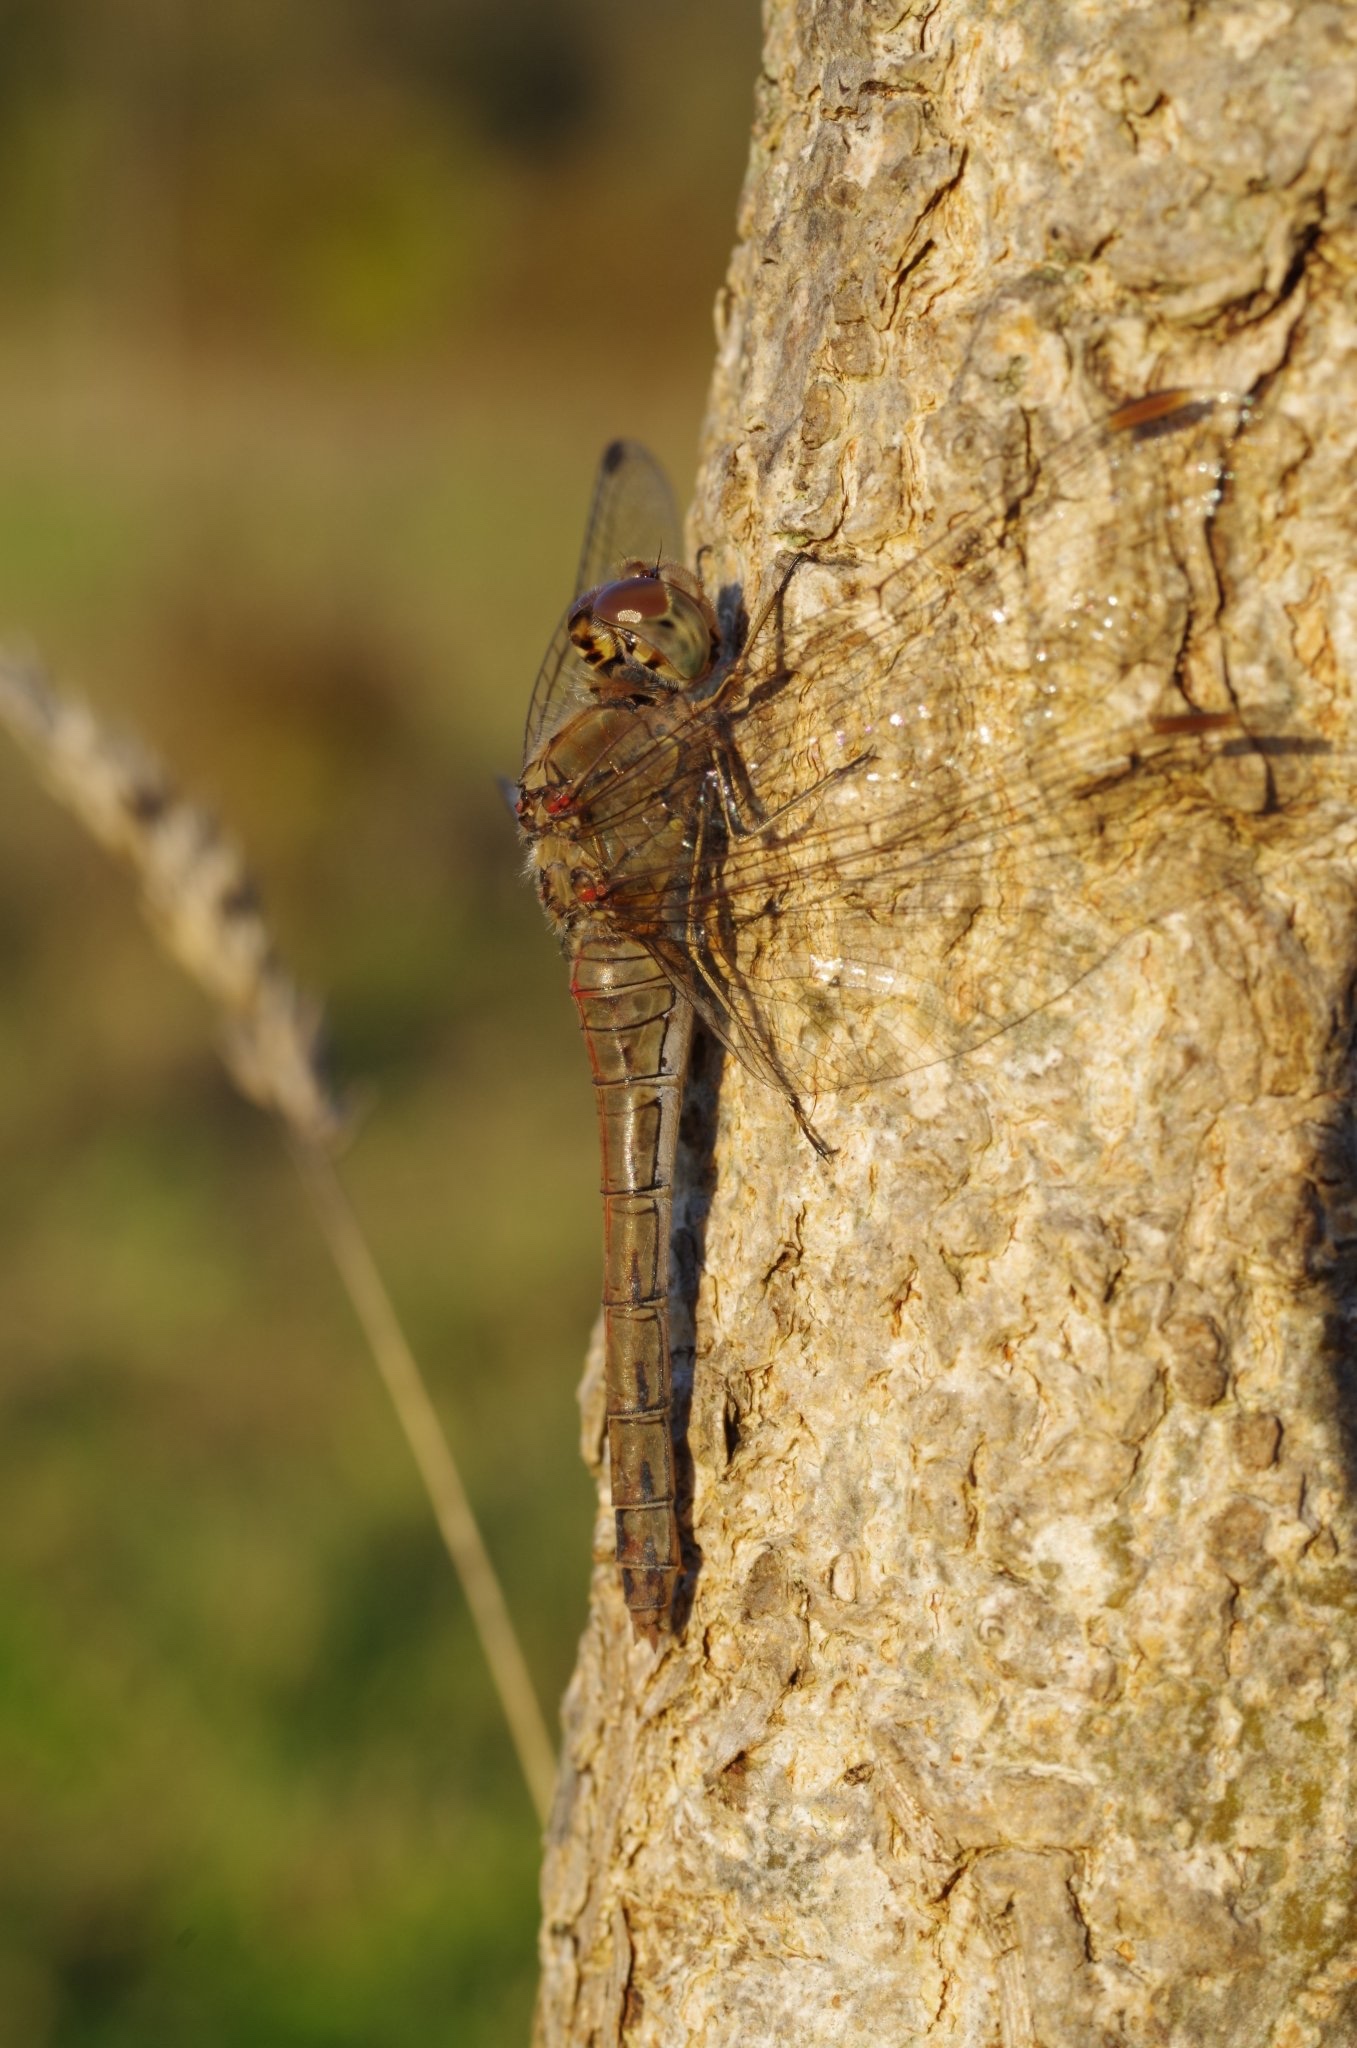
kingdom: Animalia
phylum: Arthropoda
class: Insecta
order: Odonata
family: Libellulidae
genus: Sympetrum
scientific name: Sympetrum striolatum
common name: Common darter
